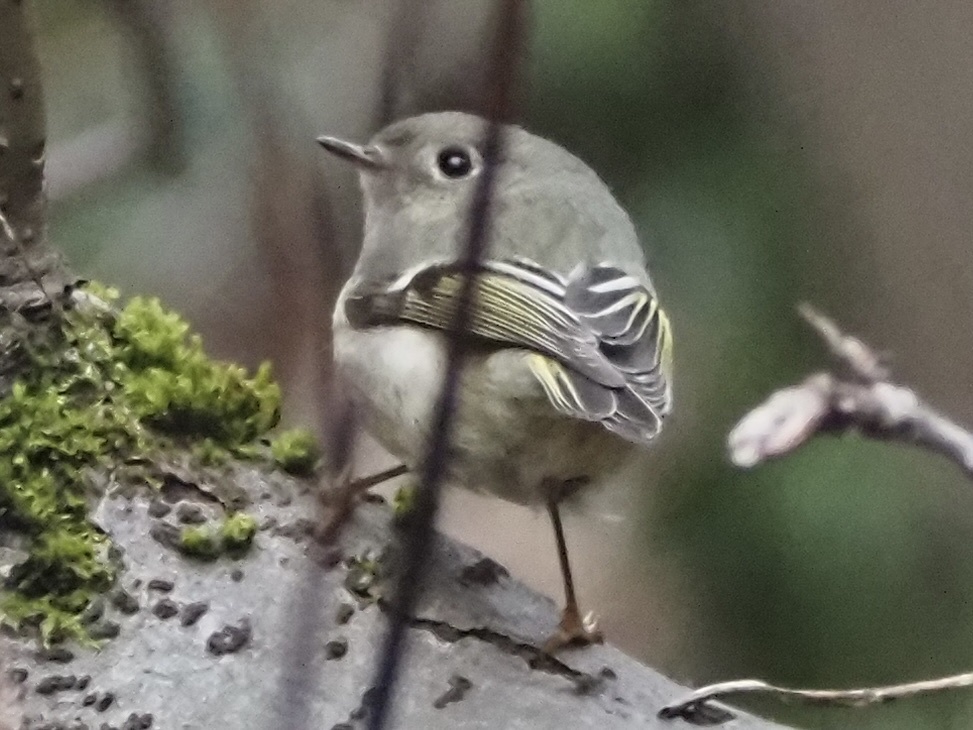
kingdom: Animalia
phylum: Chordata
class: Aves
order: Passeriformes
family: Regulidae
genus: Regulus
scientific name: Regulus calendula
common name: Ruby-crowned kinglet
